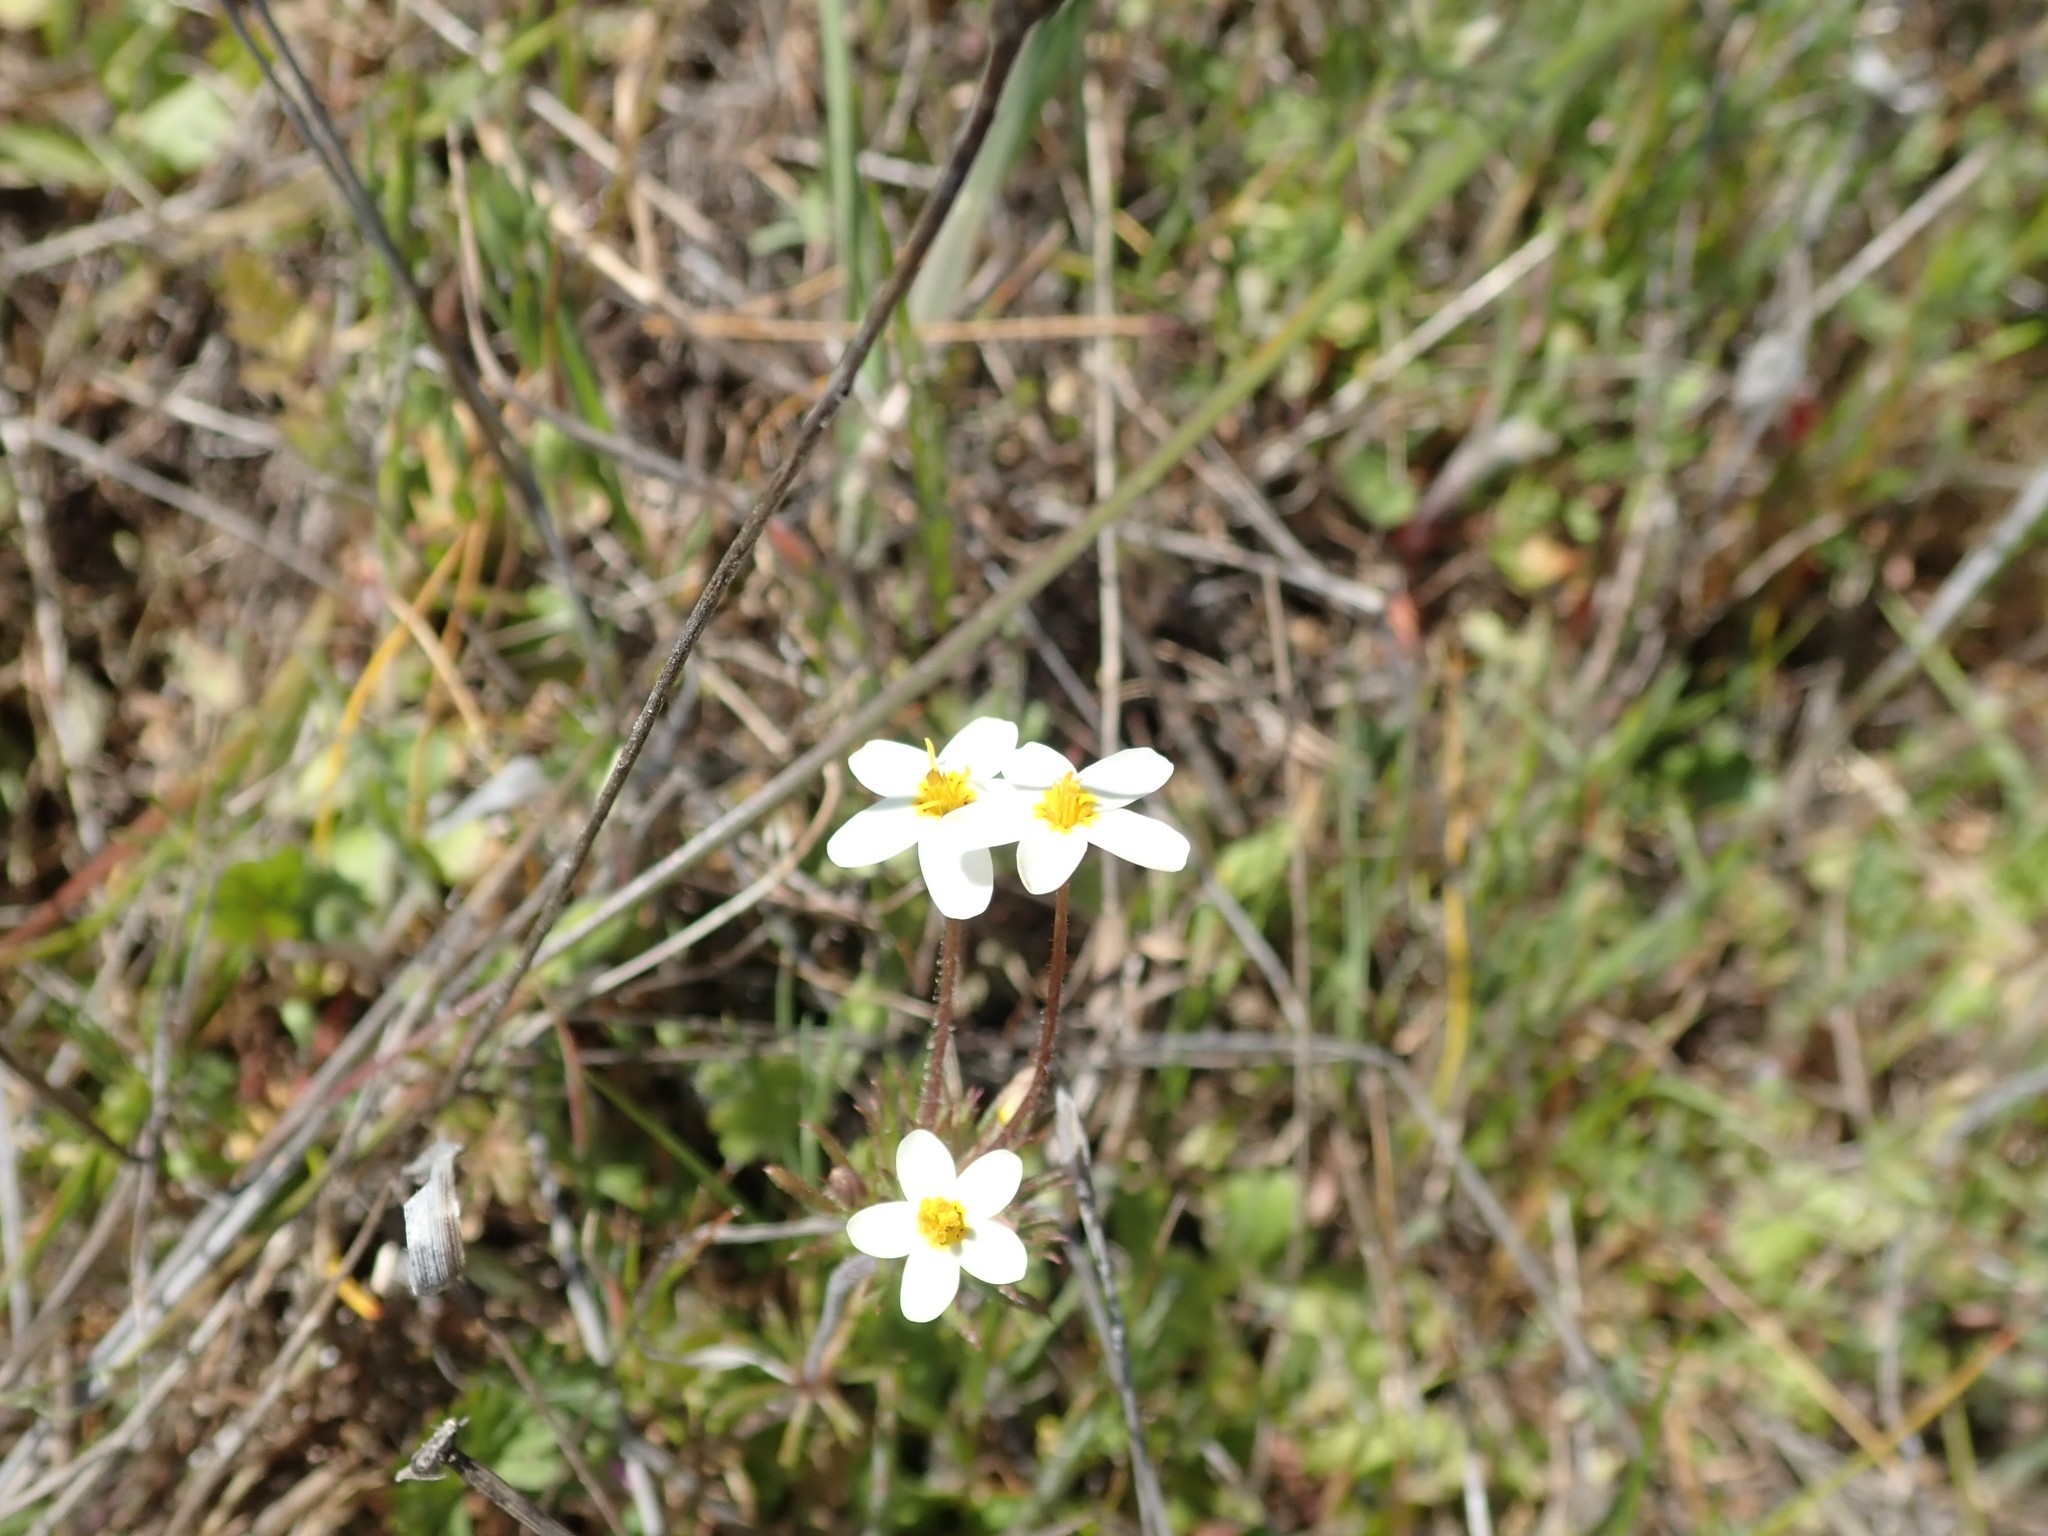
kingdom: Plantae
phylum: Tracheophyta
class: Magnoliopsida
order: Ericales
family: Polemoniaceae
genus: Leptosiphon
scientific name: Leptosiphon parviflorus
